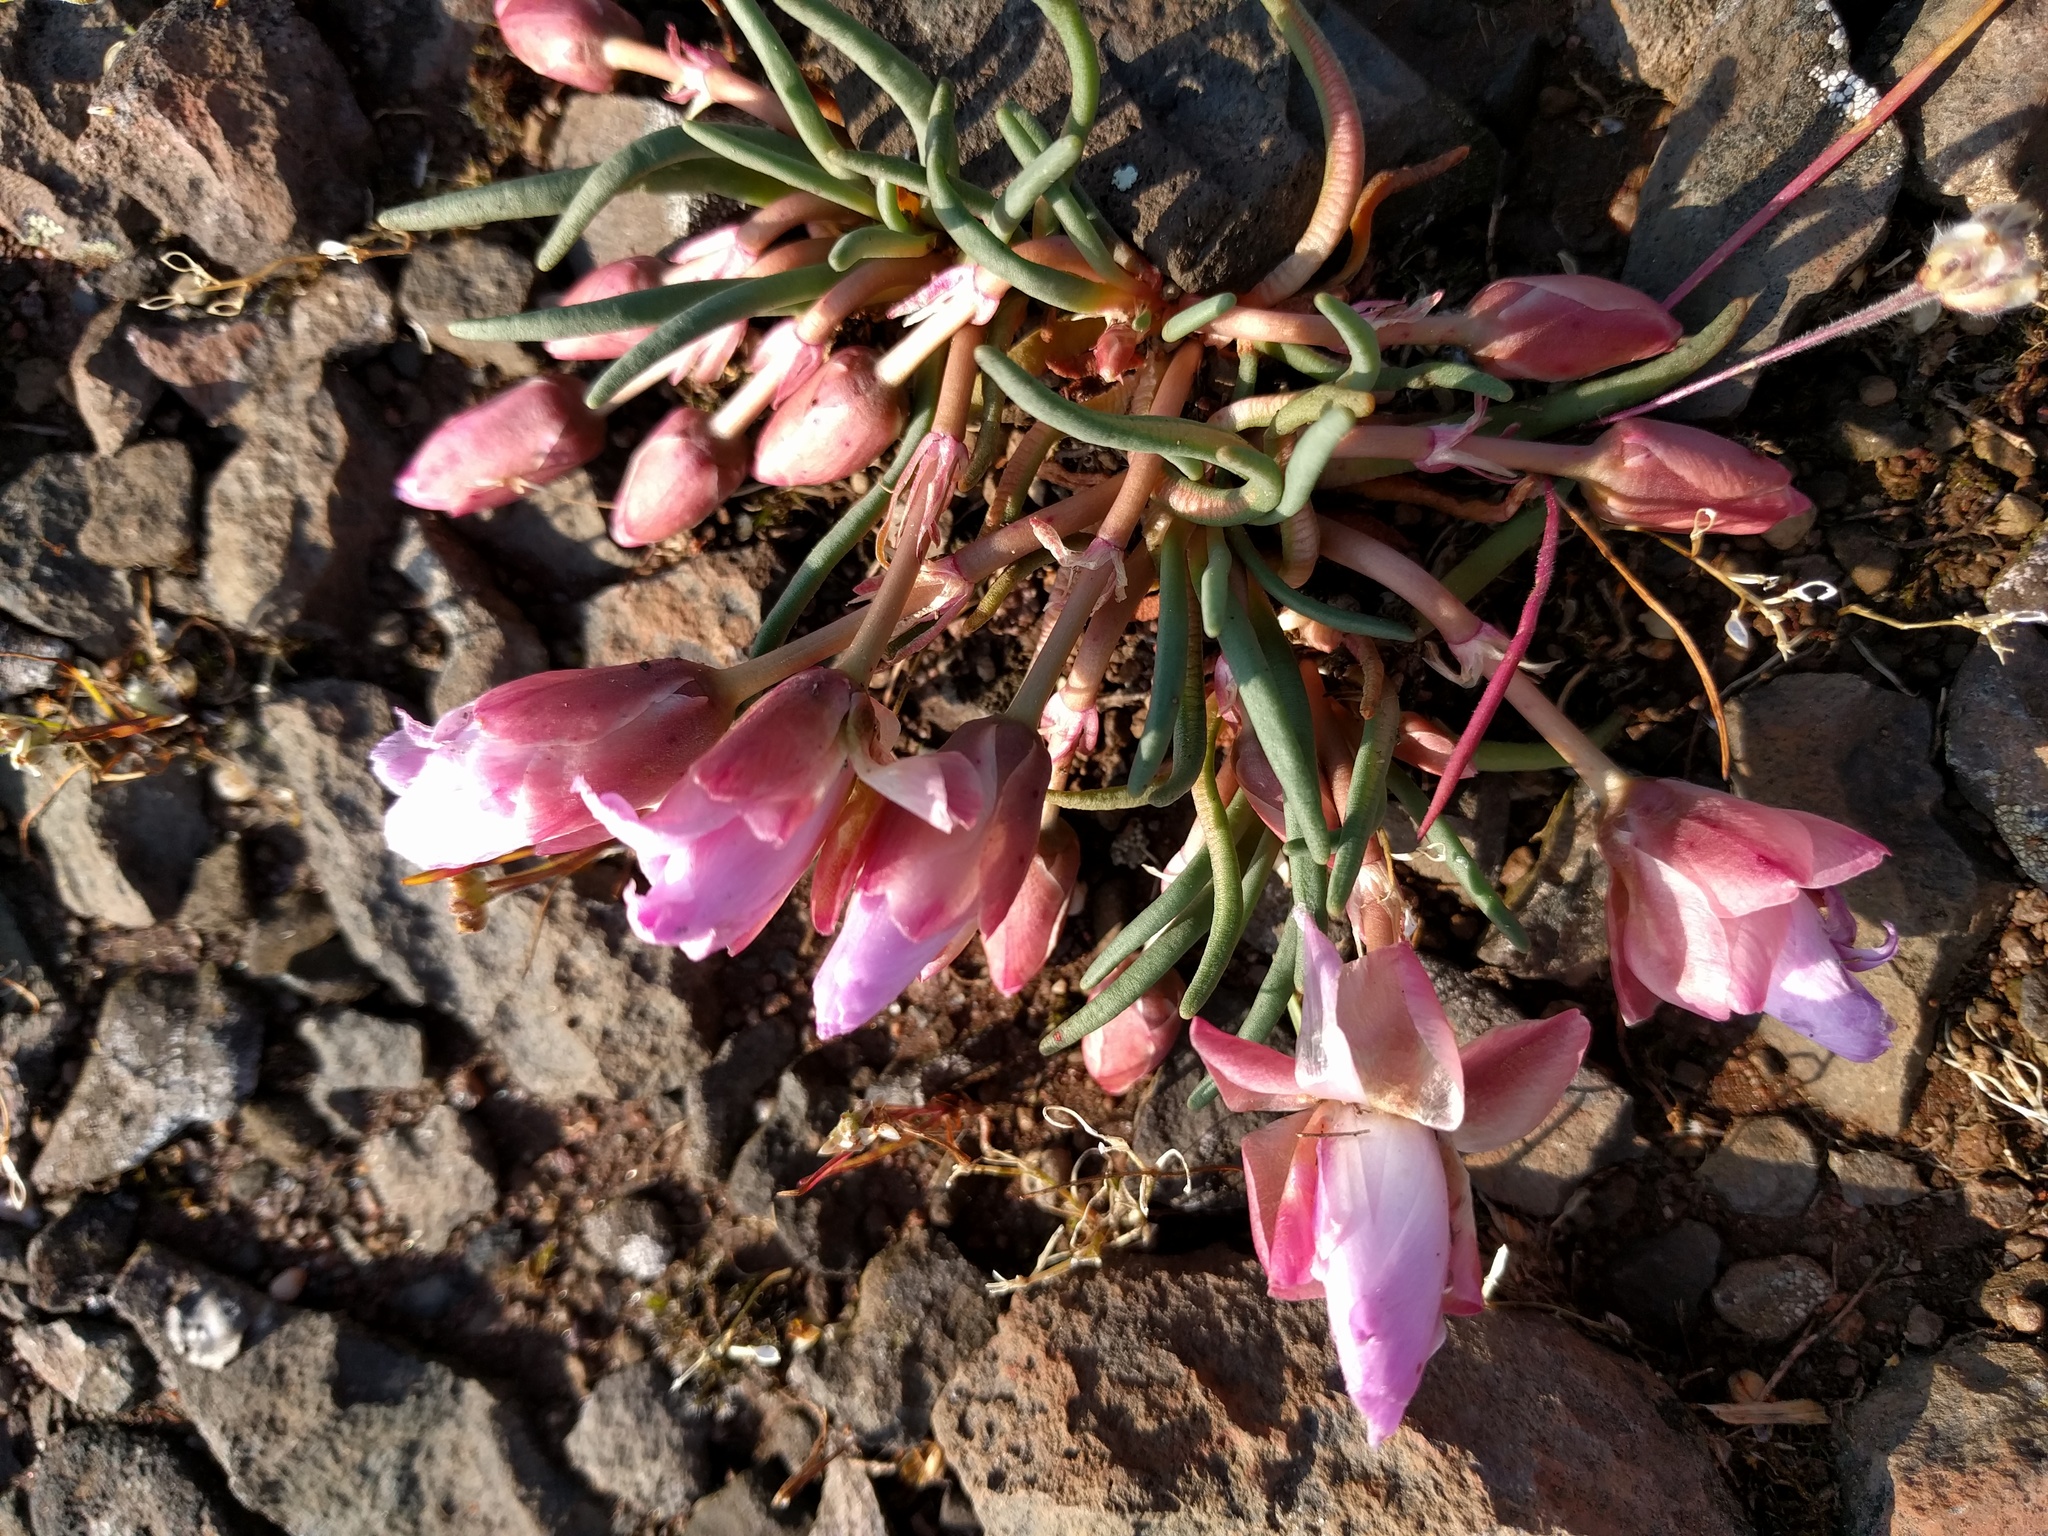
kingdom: Plantae
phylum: Tracheophyta
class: Magnoliopsida
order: Caryophyllales
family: Montiaceae
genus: Lewisia
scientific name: Lewisia rediviva
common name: Bitter-root
